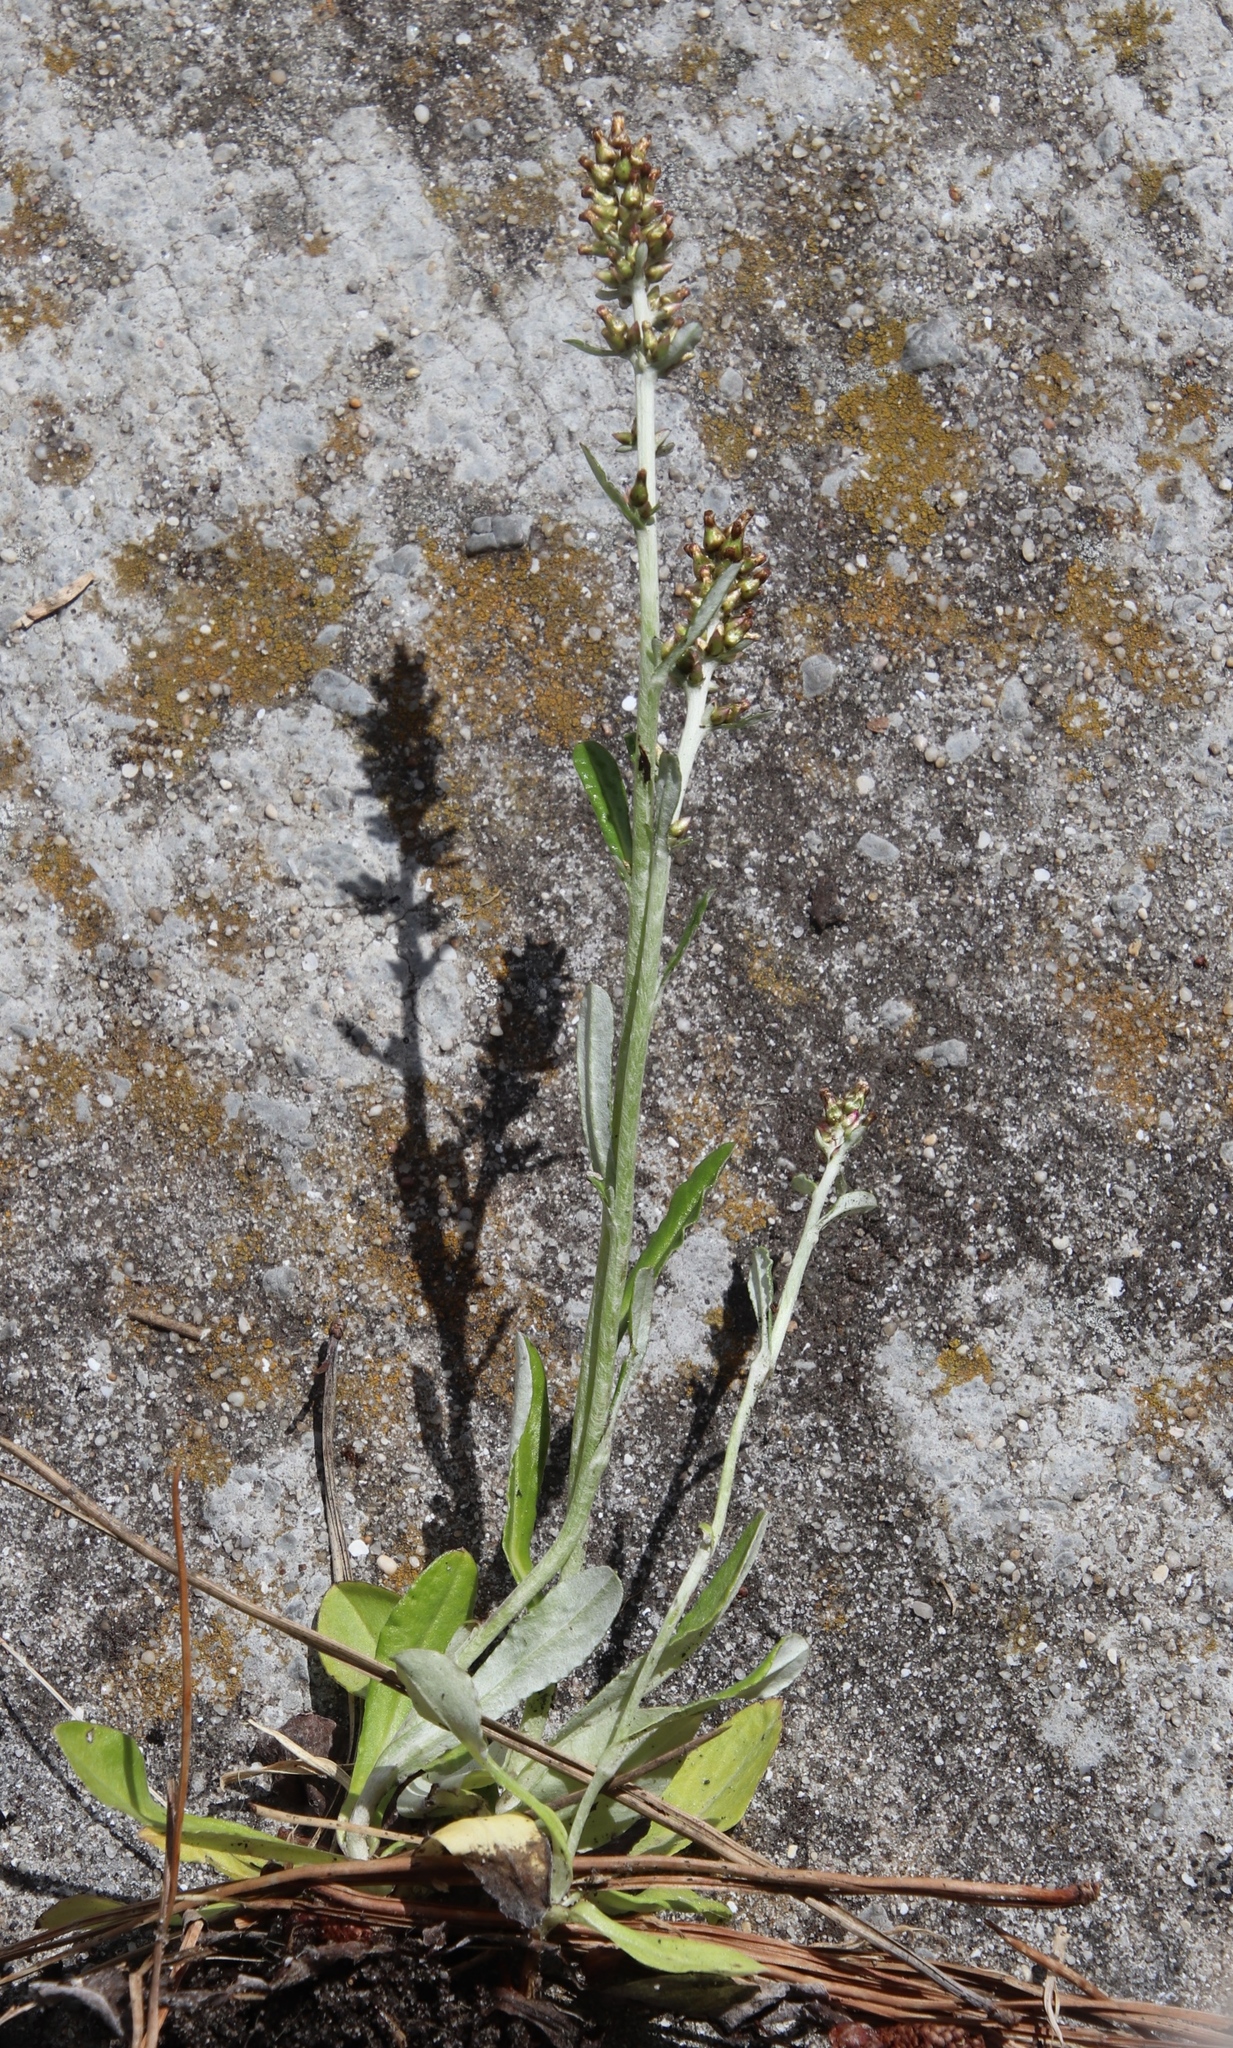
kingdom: Plantae
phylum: Tracheophyta
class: Magnoliopsida
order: Asterales
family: Asteraceae
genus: Gamochaeta
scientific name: Gamochaeta americana
